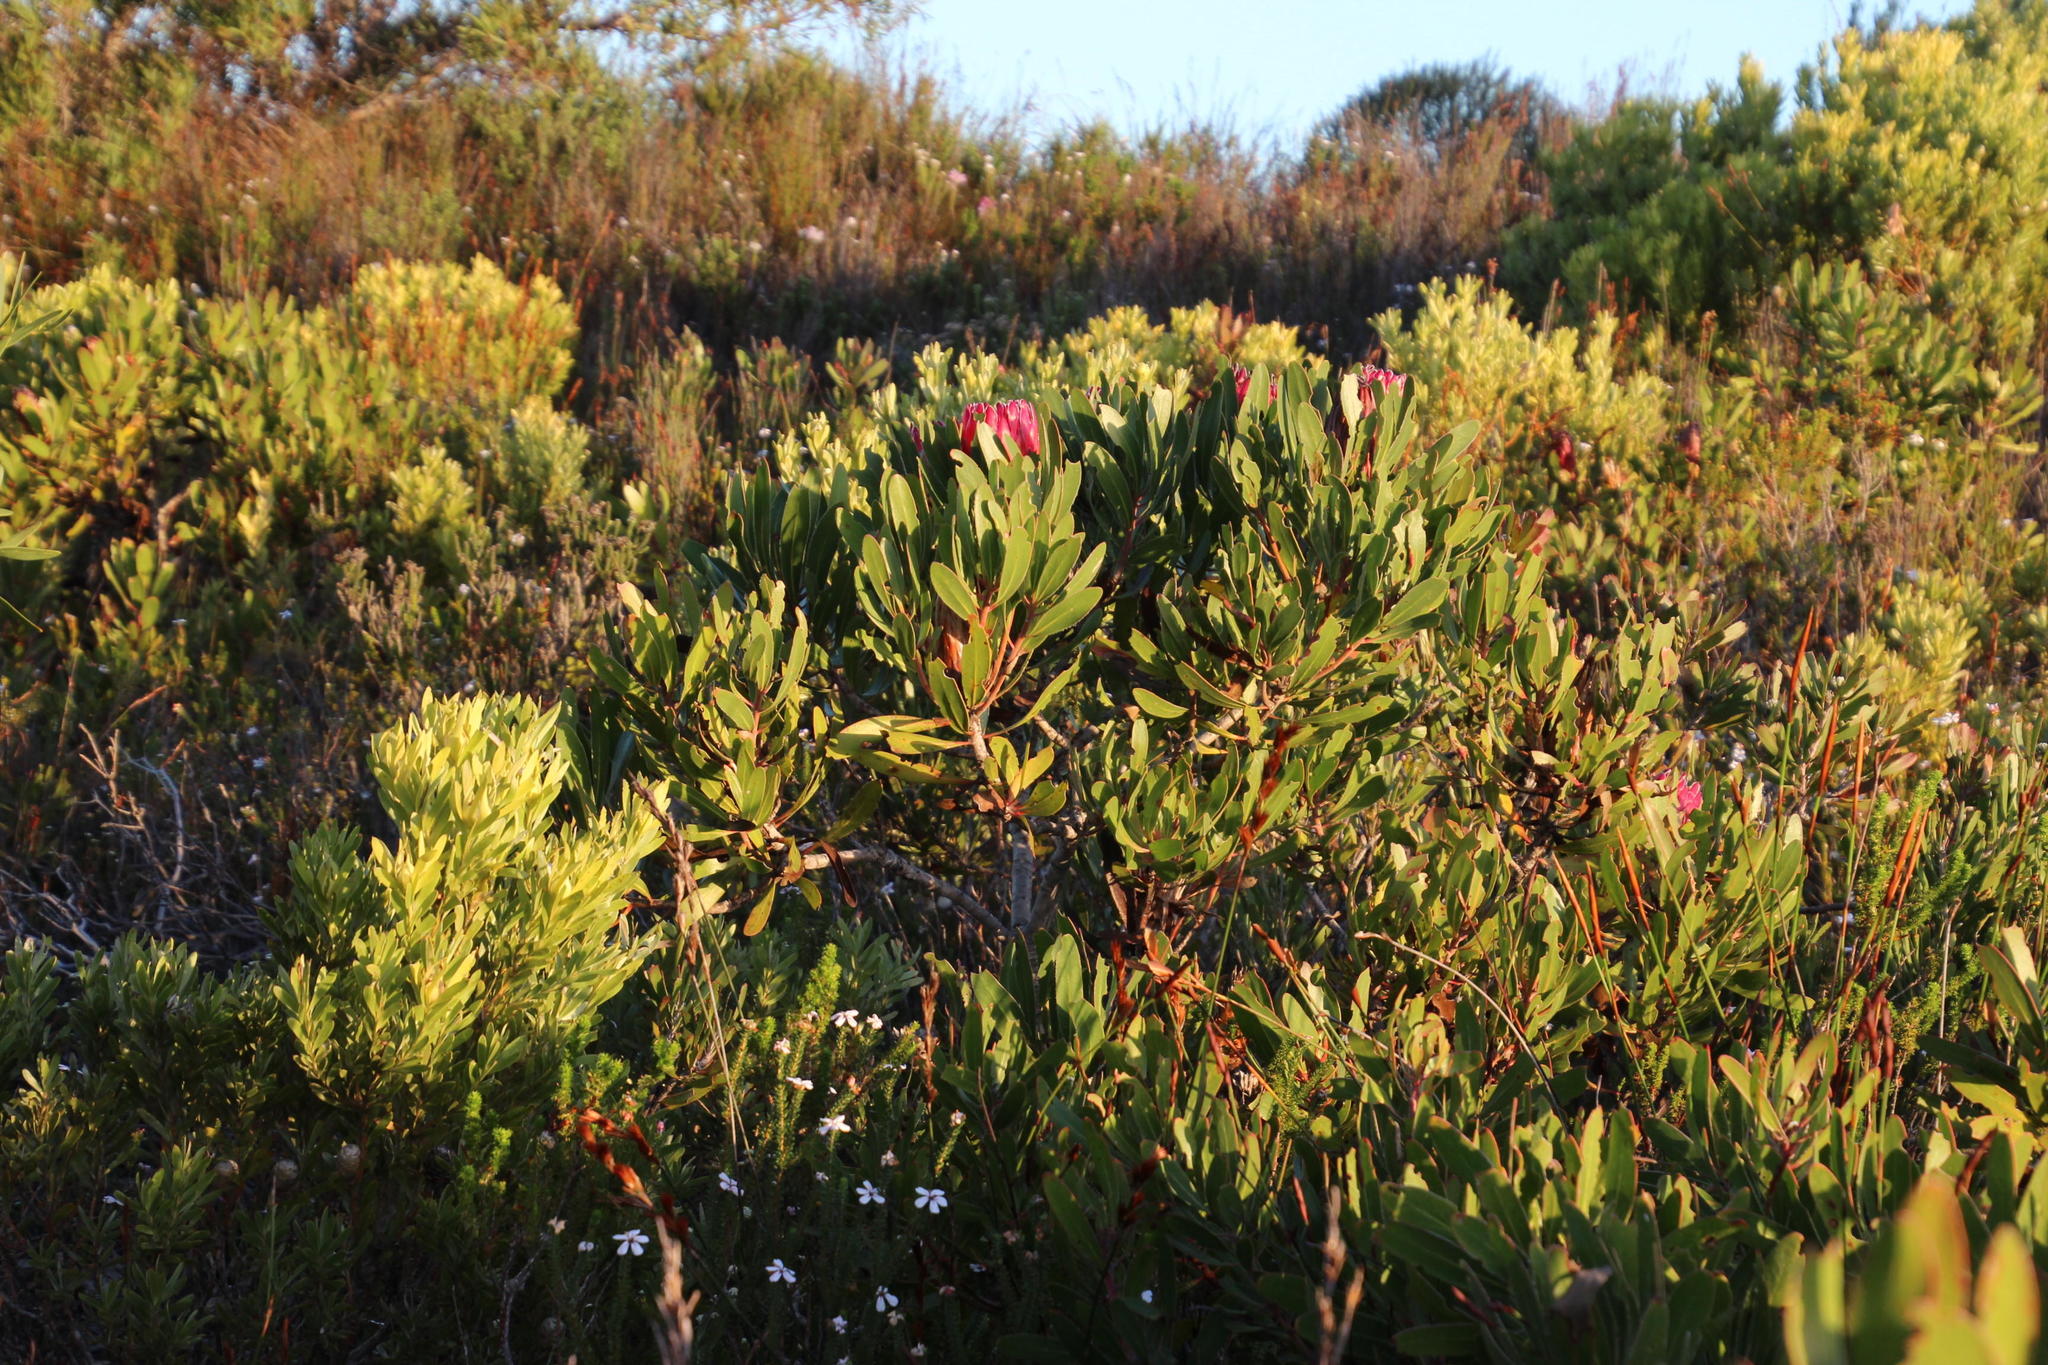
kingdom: Plantae
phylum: Tracheophyta
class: Magnoliopsida
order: Proteales
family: Proteaceae
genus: Protea
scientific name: Protea obtusifolia
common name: Bredasdorp sugarbush
